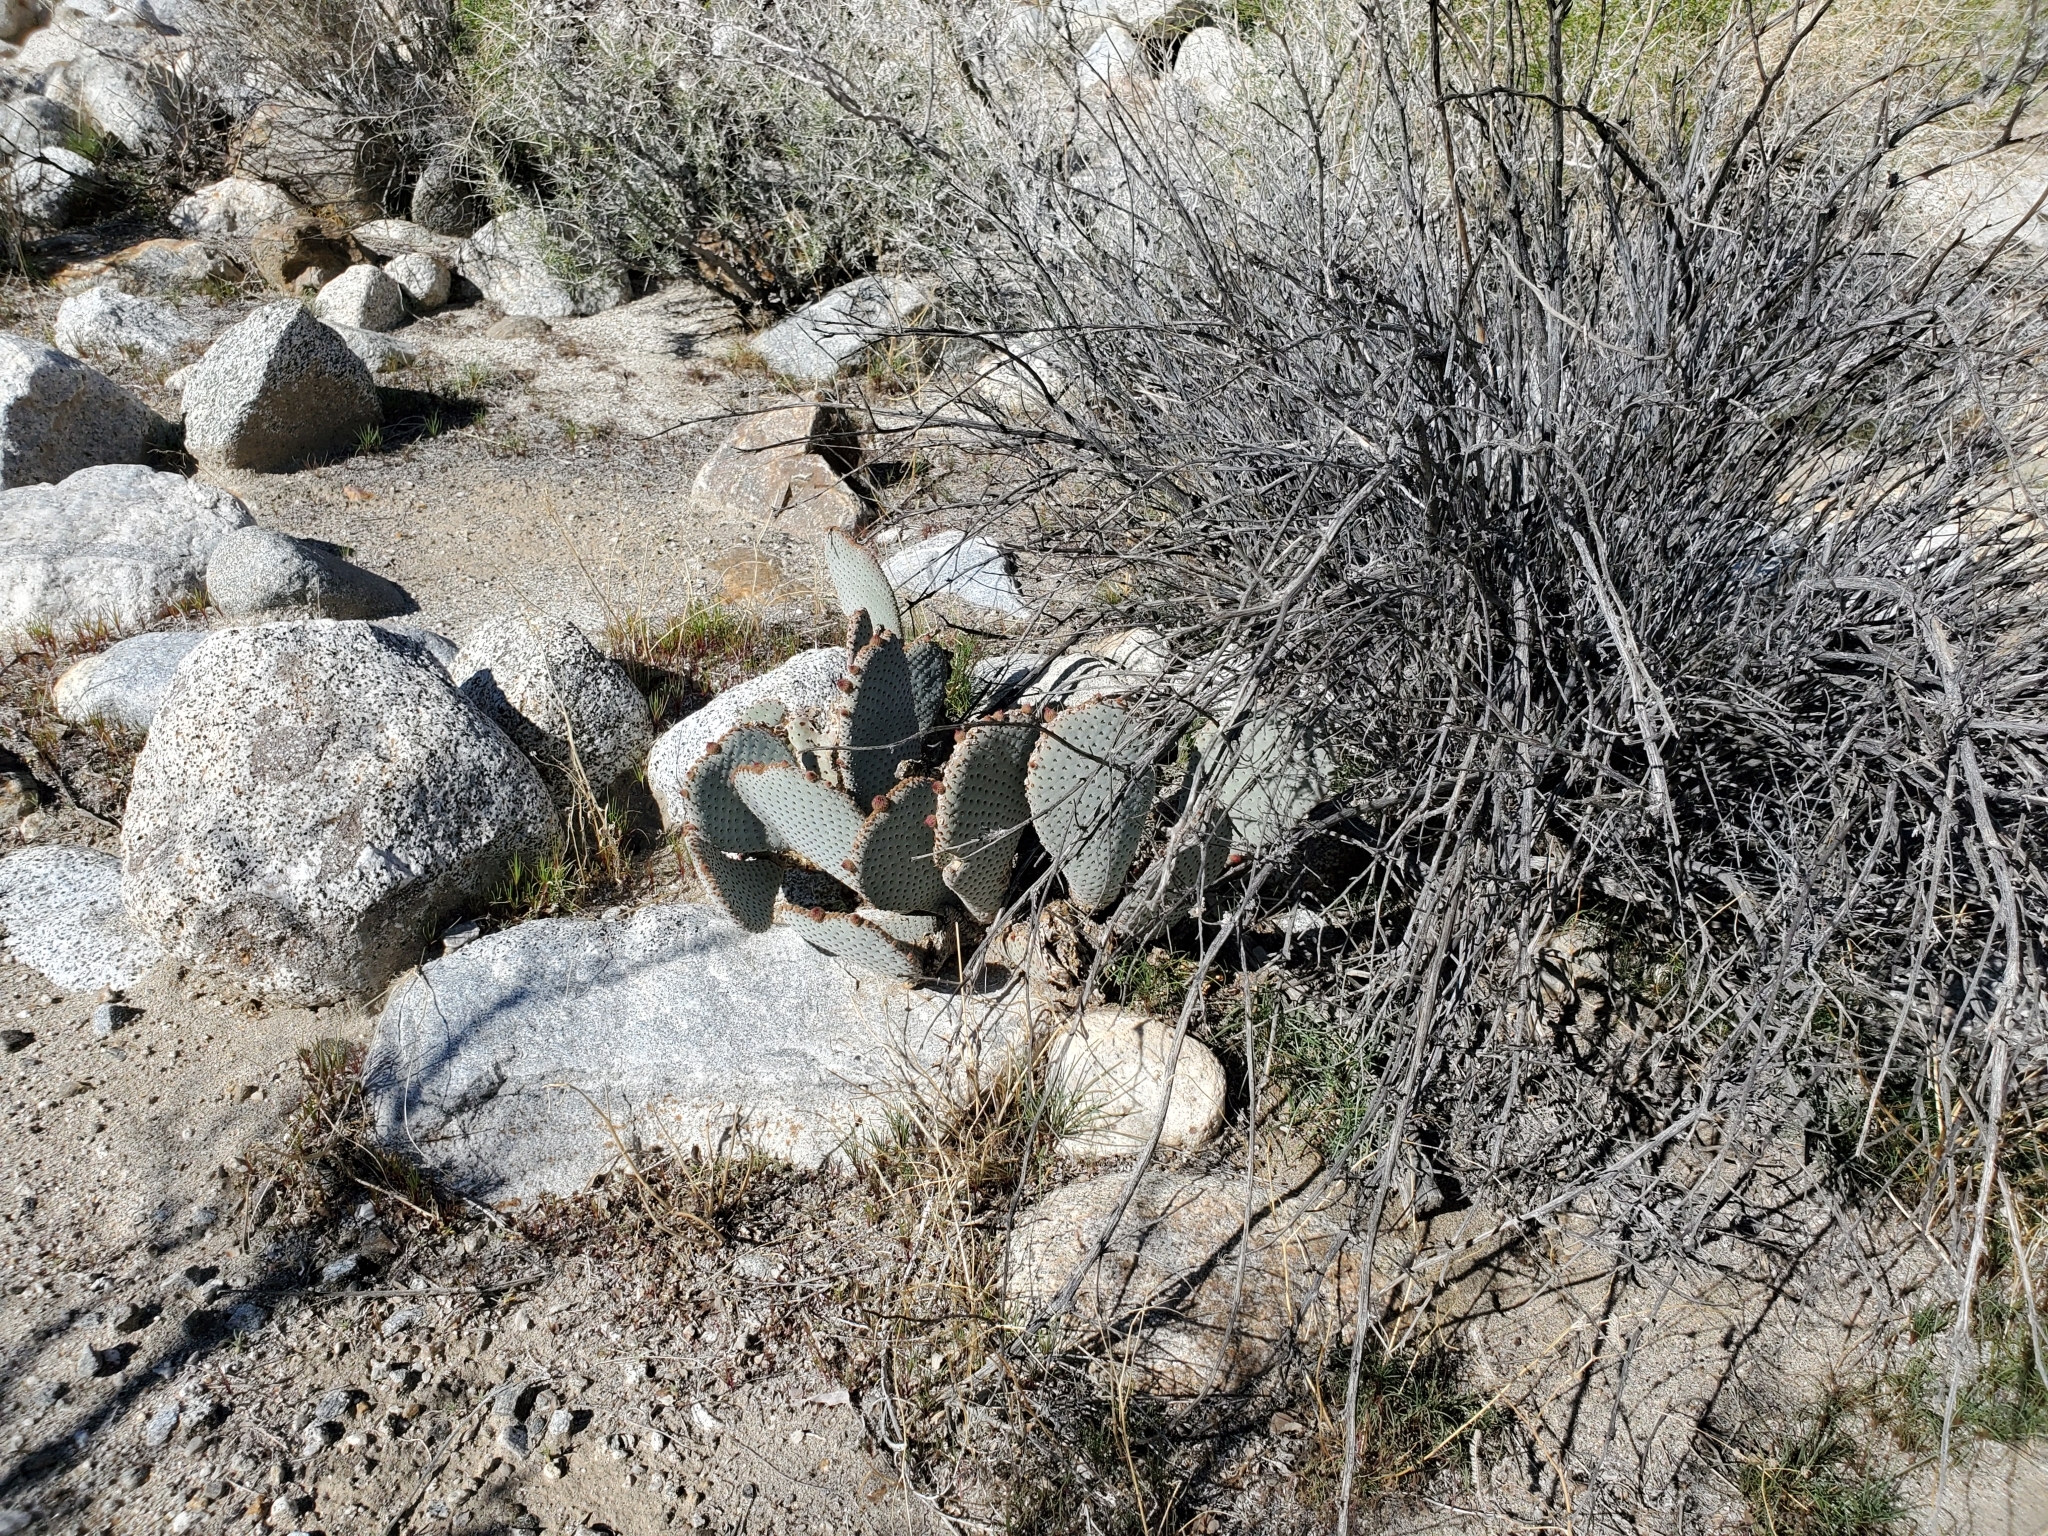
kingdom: Plantae
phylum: Tracheophyta
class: Magnoliopsida
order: Caryophyllales
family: Cactaceae
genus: Opuntia
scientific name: Opuntia basilaris
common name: Beavertail prickly-pear
